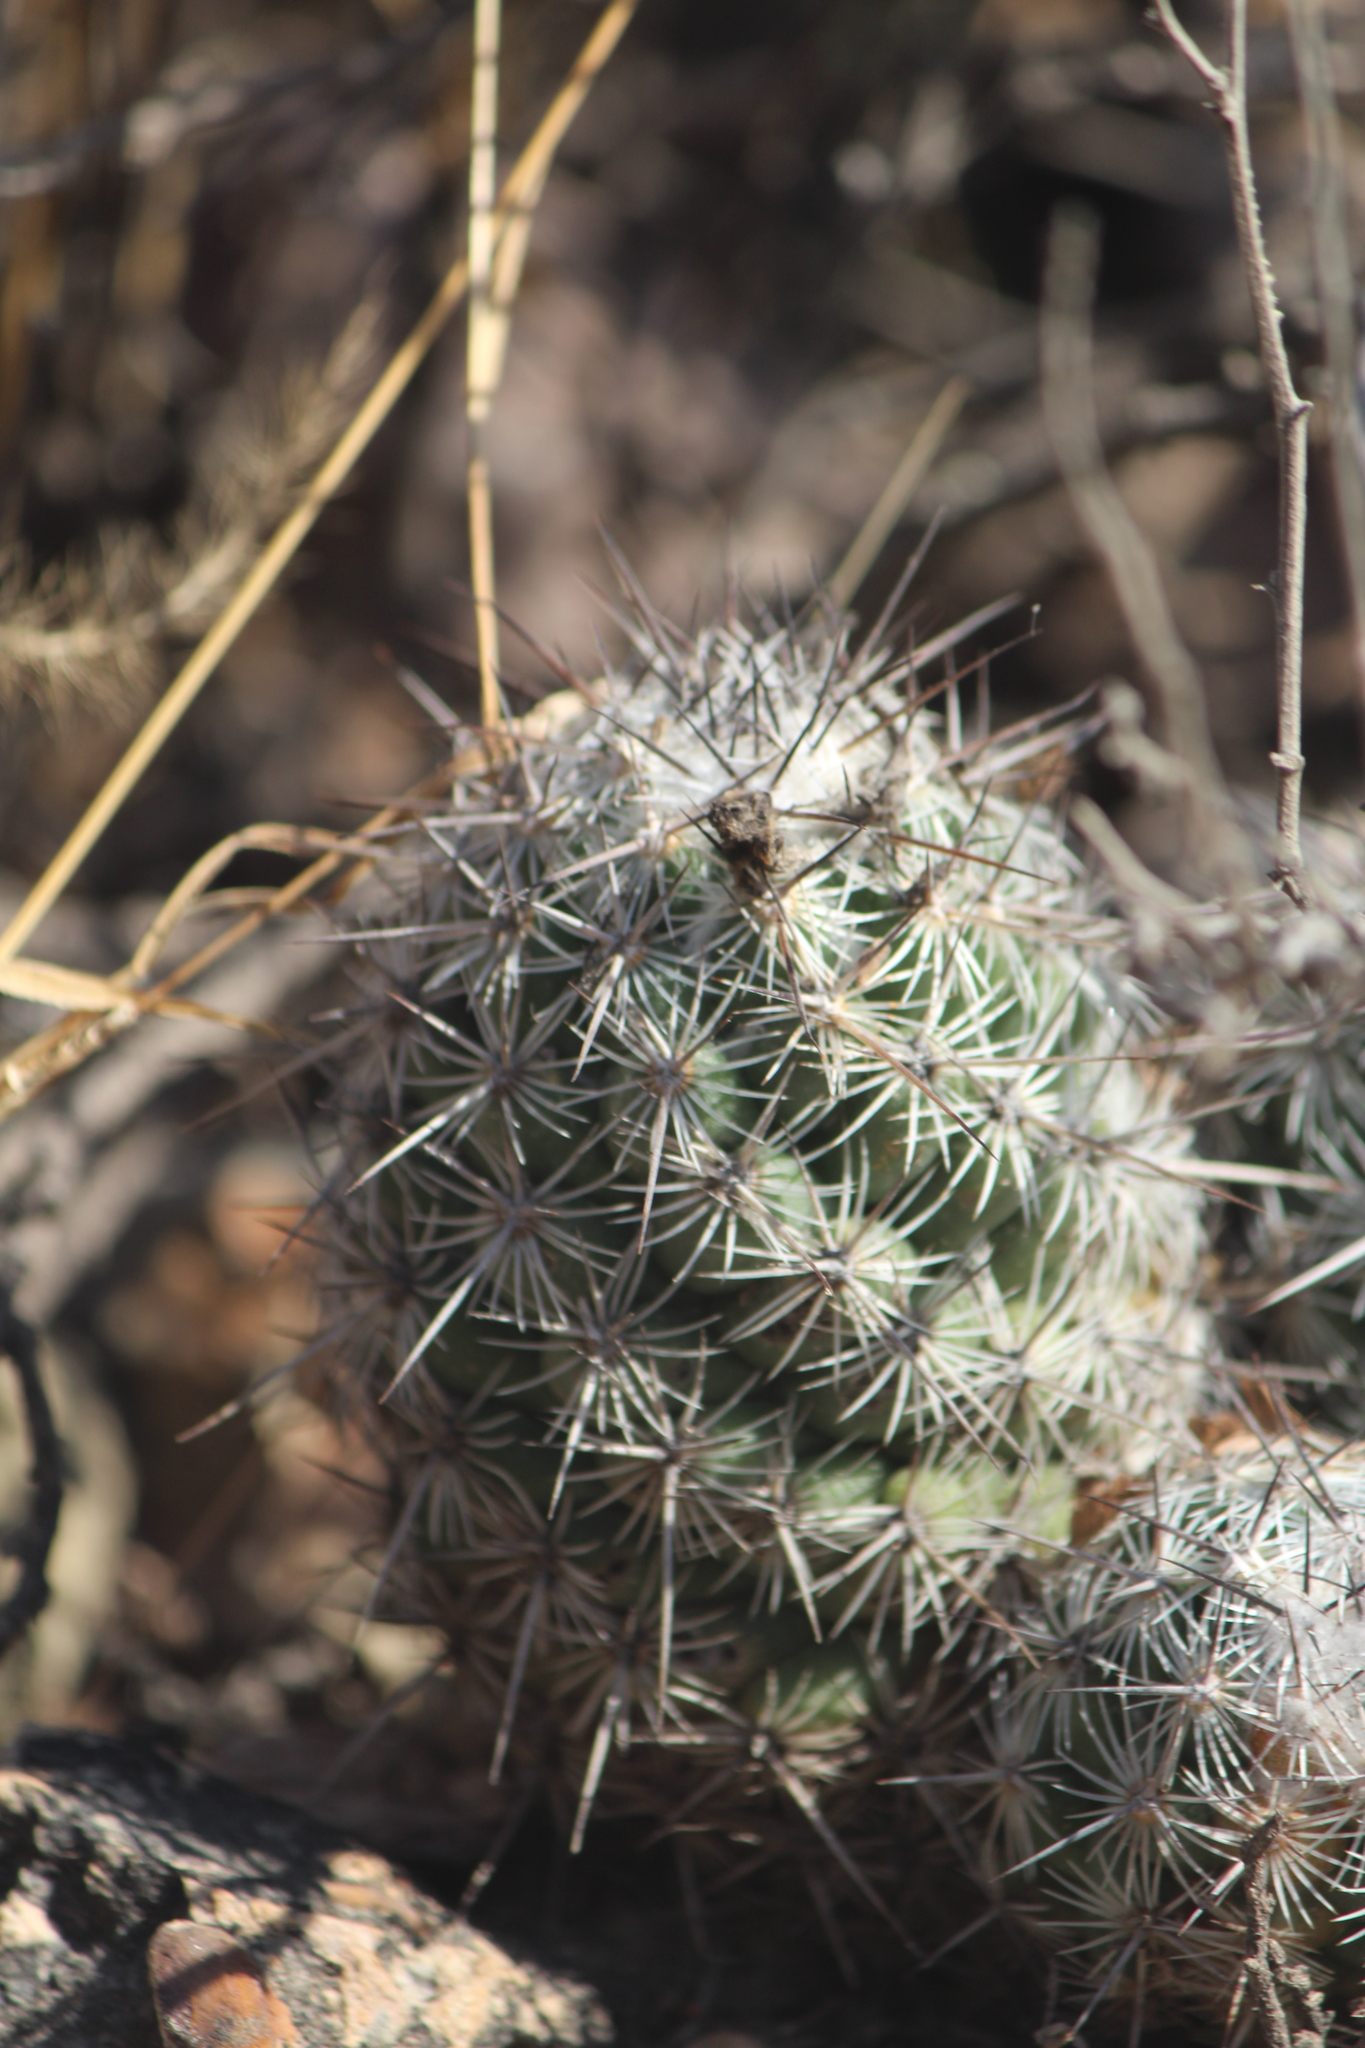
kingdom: Plantae
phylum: Tracheophyta
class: Magnoliopsida
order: Caryophyllales
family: Cactaceae
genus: Cochemiea
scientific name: Cochemiea conoidea
